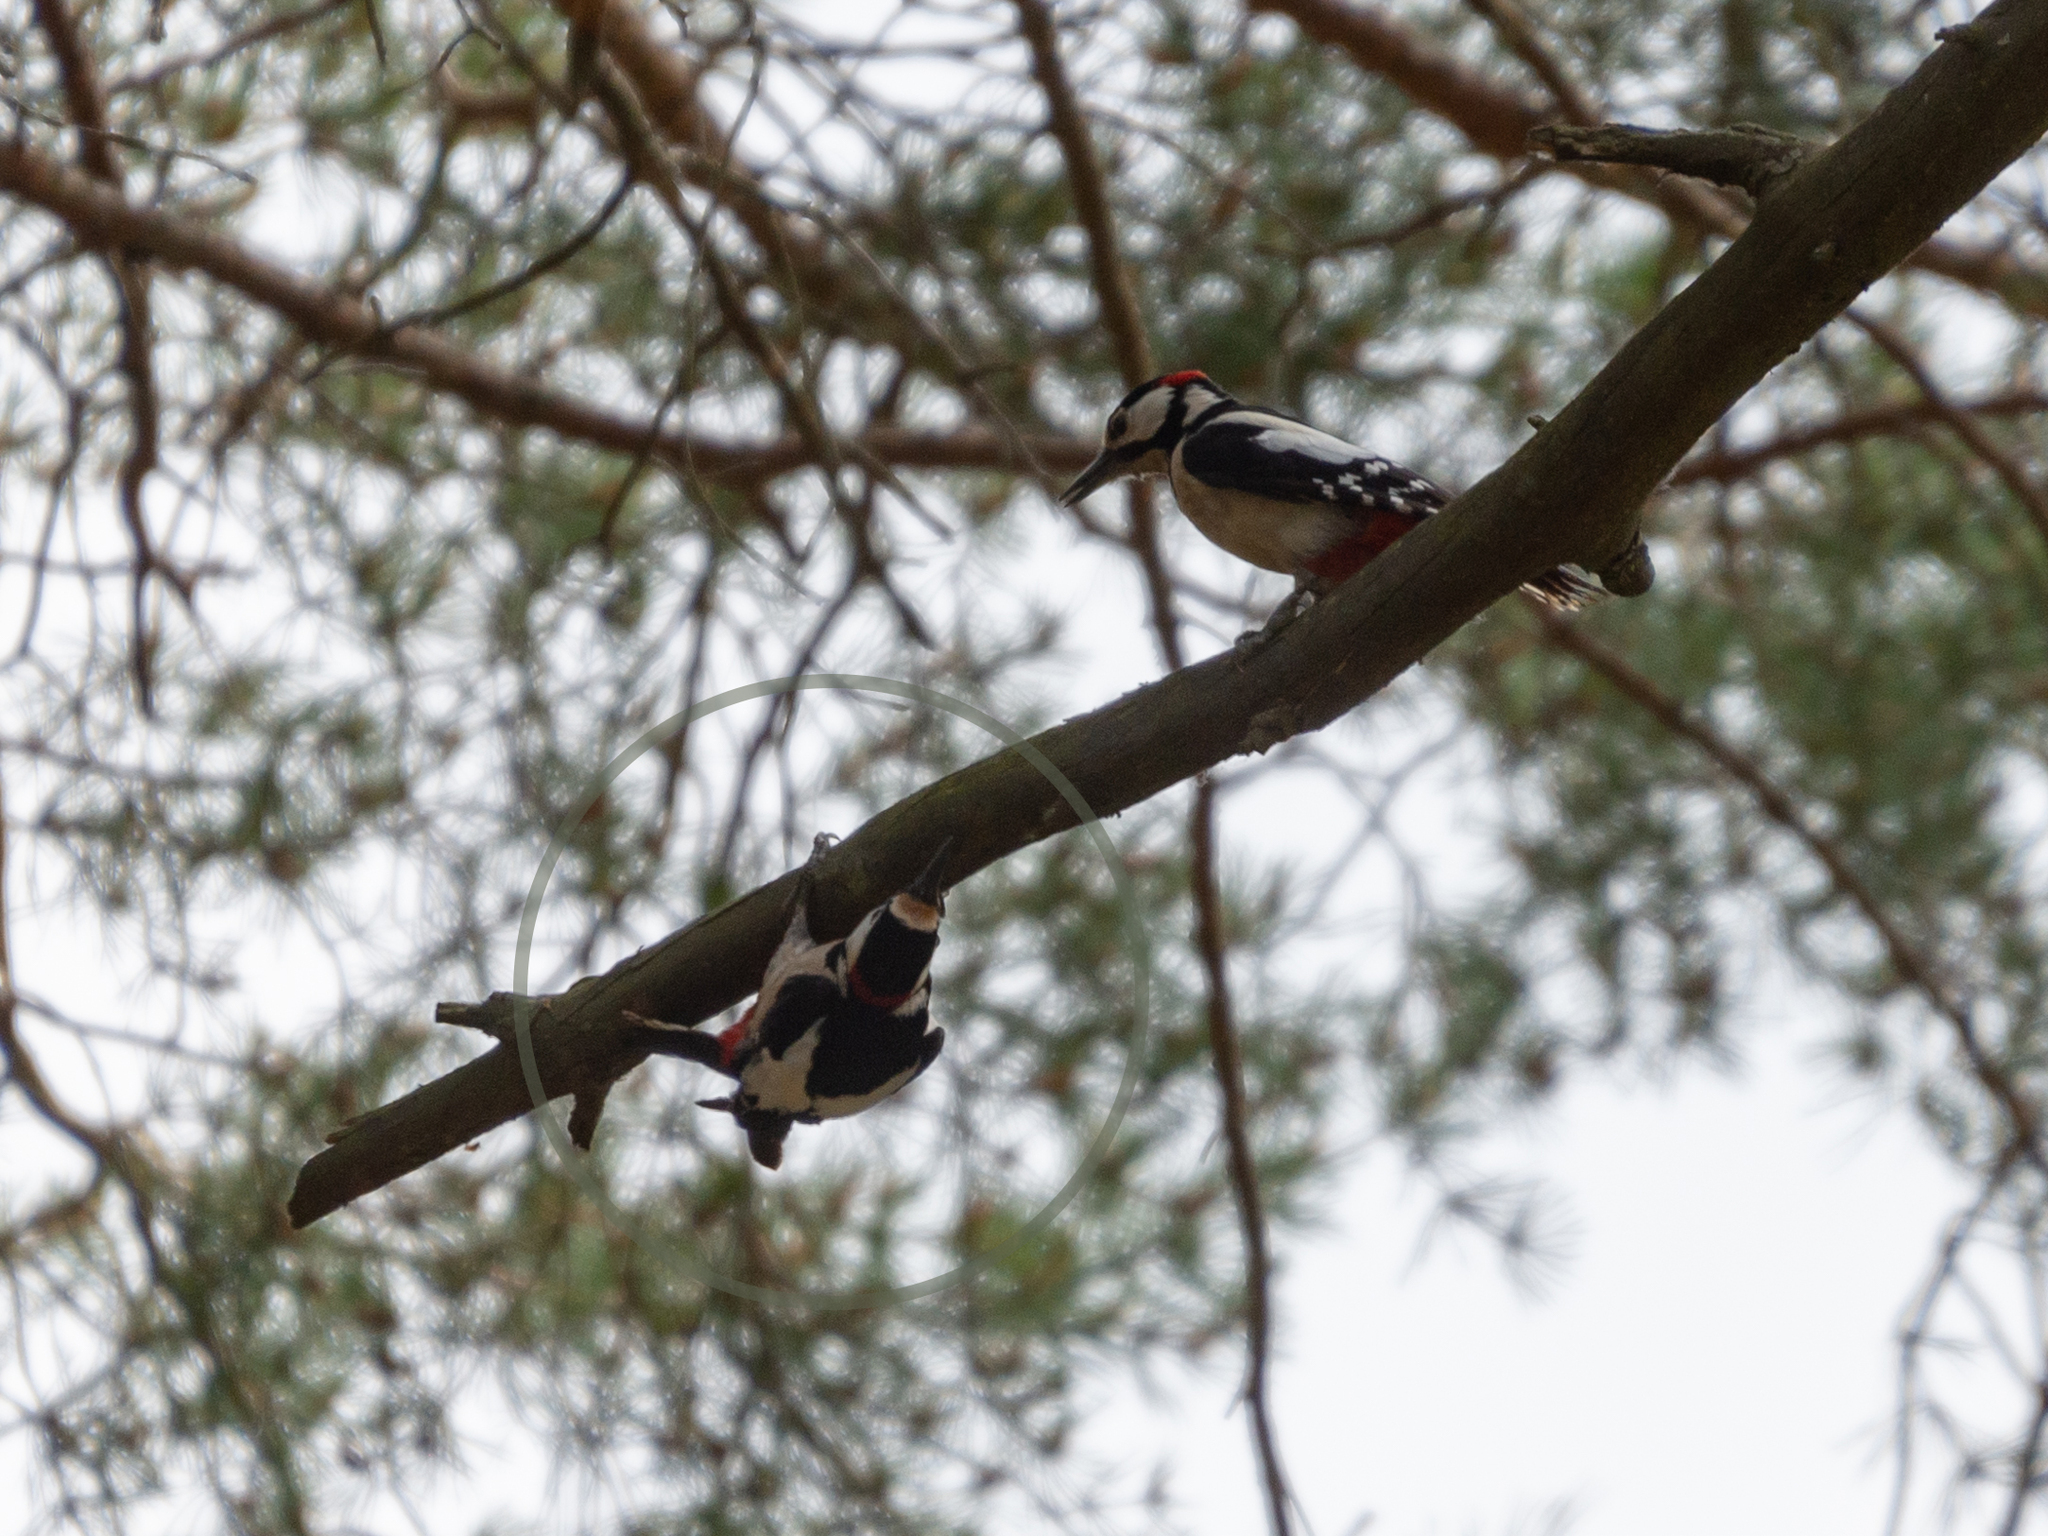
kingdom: Animalia
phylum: Chordata
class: Aves
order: Piciformes
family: Picidae
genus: Dendrocopos
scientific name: Dendrocopos major
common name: Great spotted woodpecker
